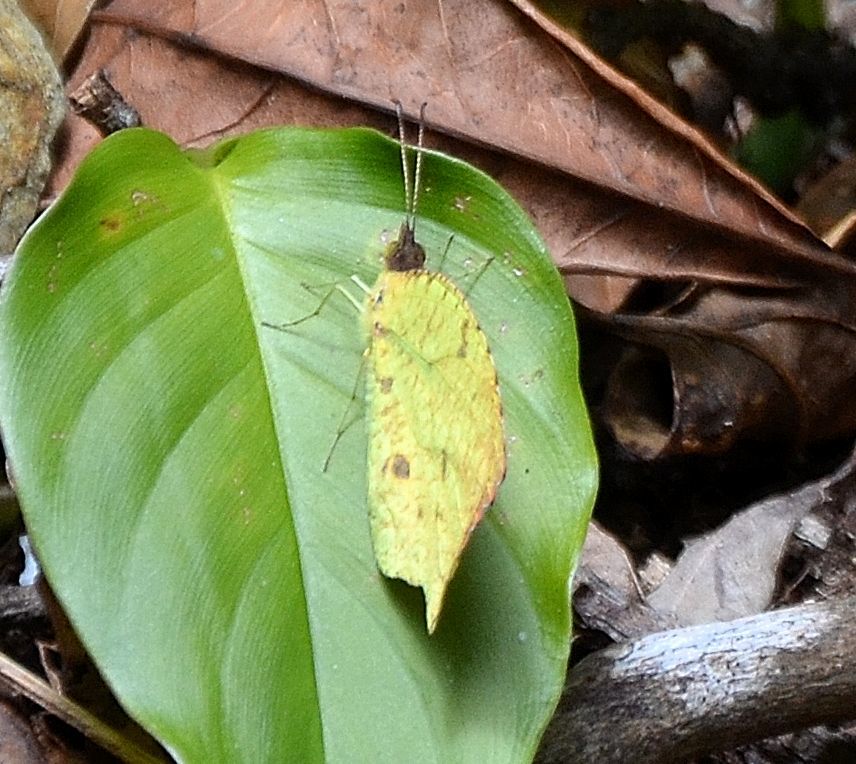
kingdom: Animalia
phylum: Arthropoda
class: Insecta
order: Lepidoptera
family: Pieridae
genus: Abaeis
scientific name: Abaeis salome
